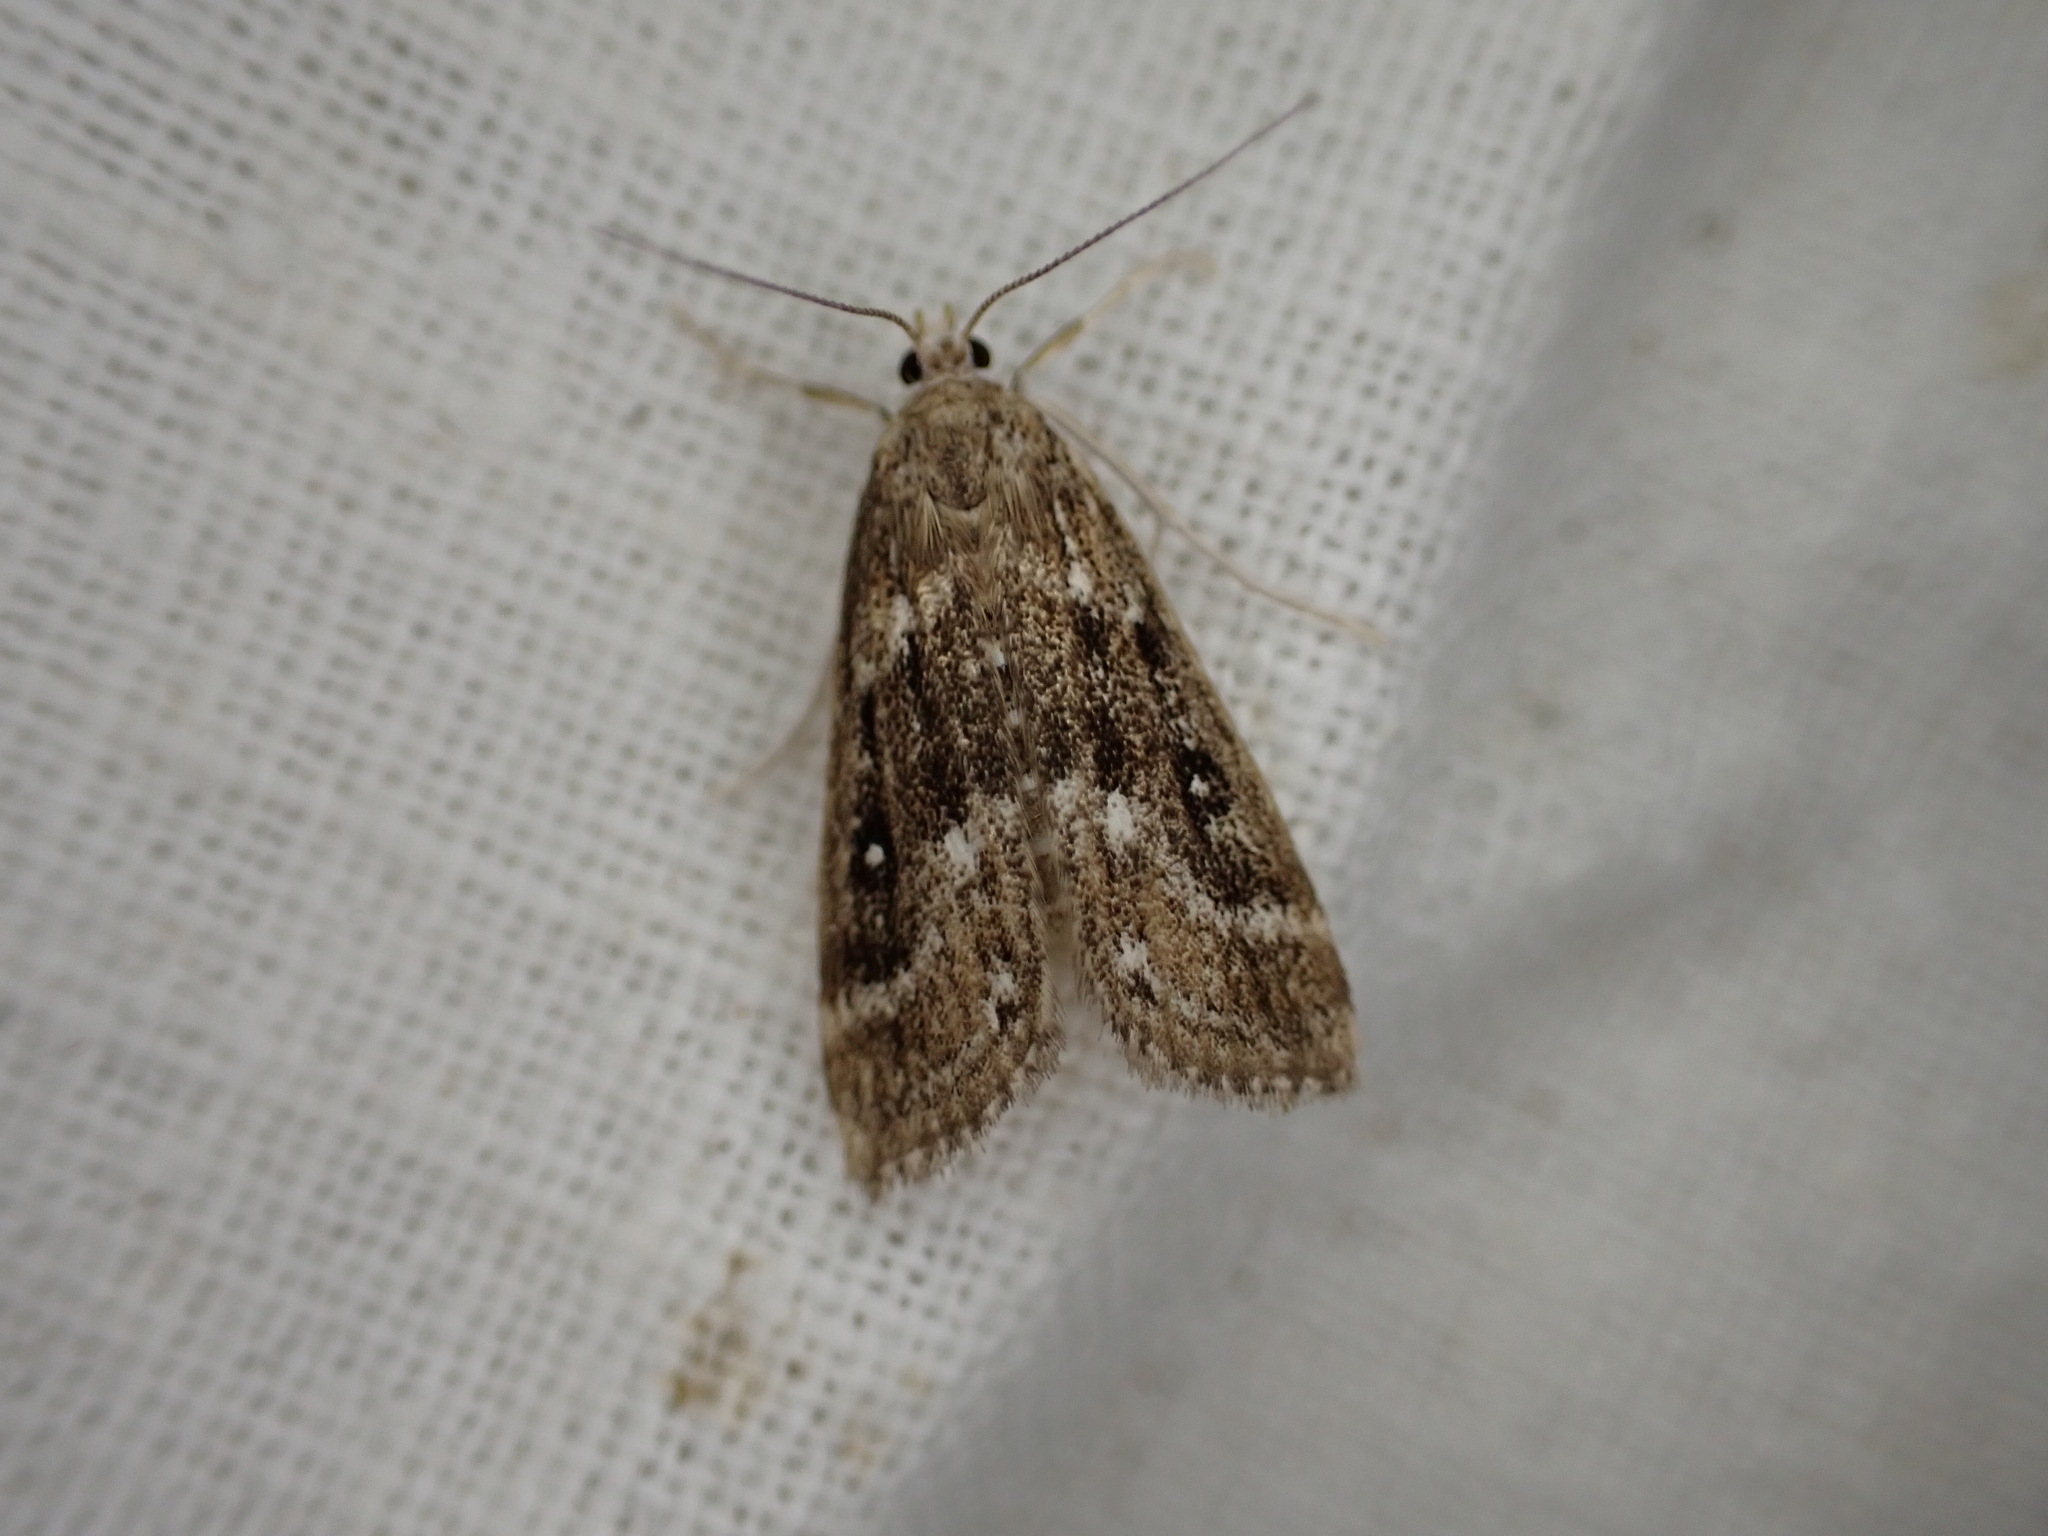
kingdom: Animalia
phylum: Arthropoda
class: Insecta
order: Lepidoptera
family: Crambidae
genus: Parapoynx
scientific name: Parapoynx stratiotata
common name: Ringed china-mark
